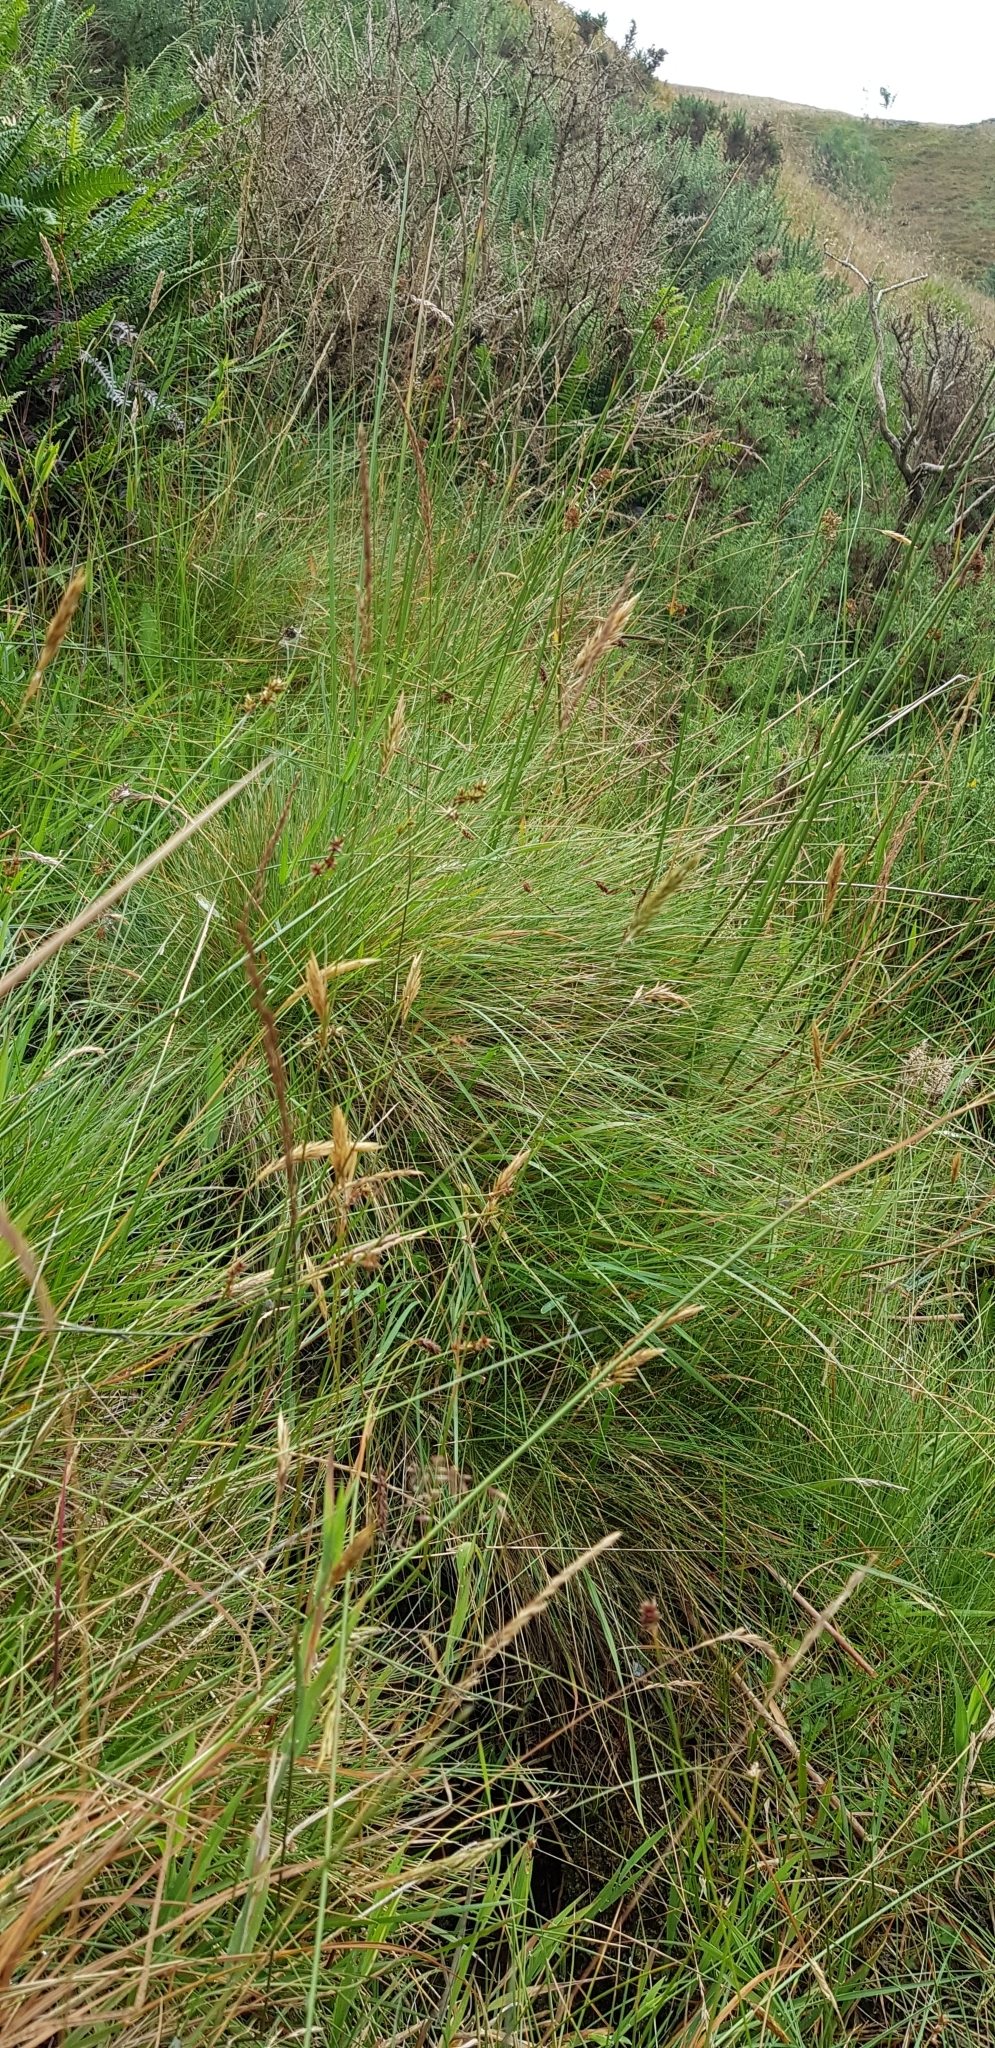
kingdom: Plantae
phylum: Bryophyta
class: Bryopsida
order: Bryales
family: Bryaceae
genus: Ptychostomum
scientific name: Ptychostomum pseudotriquetrum
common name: Long-leaved thread moss
